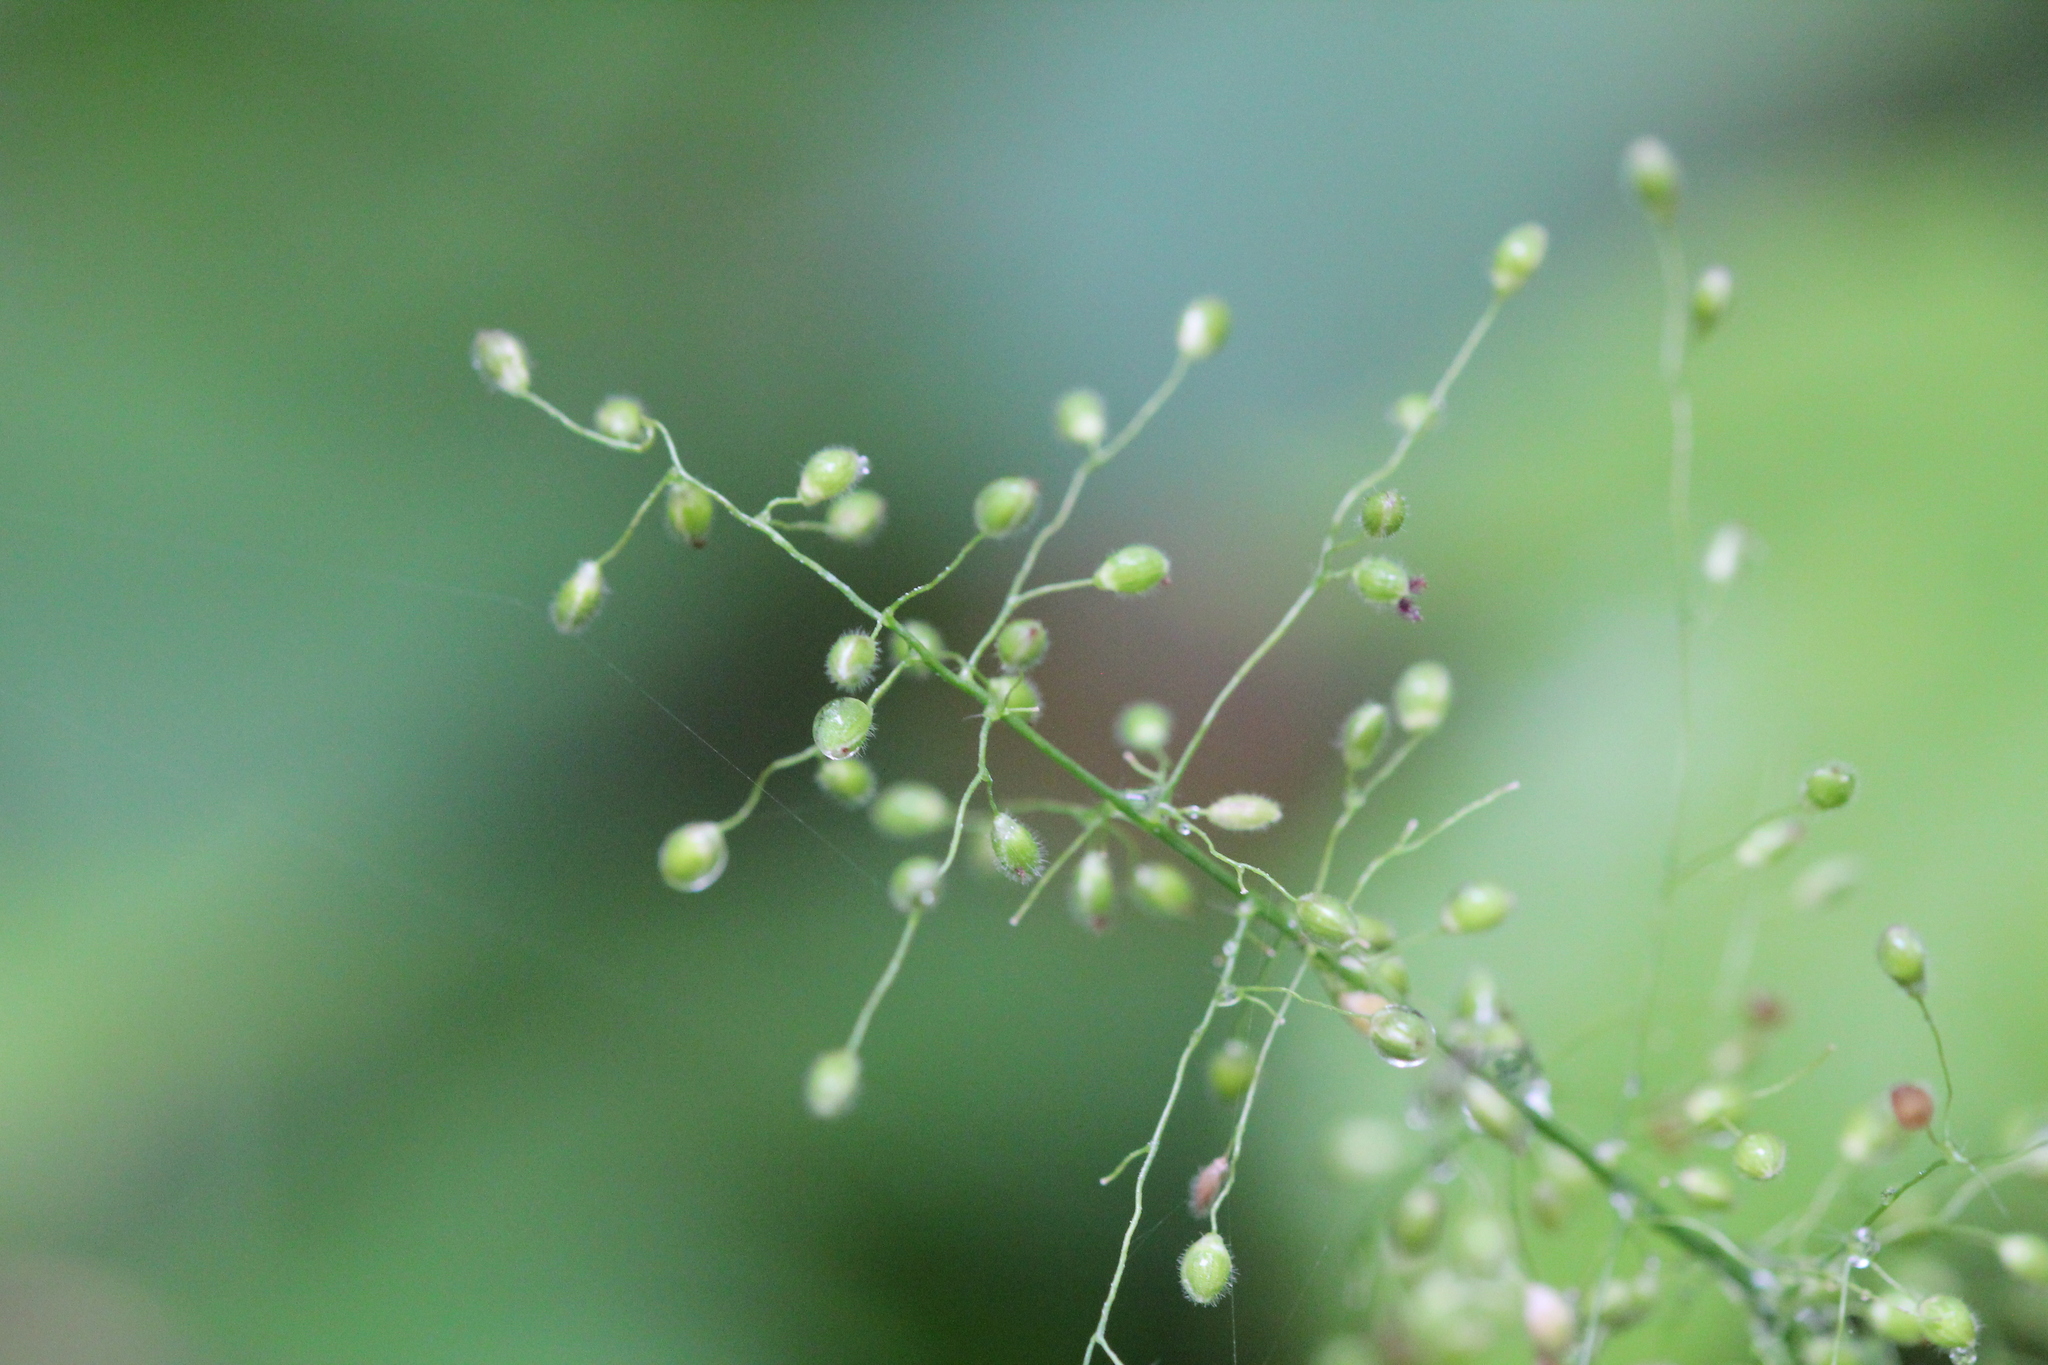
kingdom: Plantae
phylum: Tracheophyta
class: Liliopsida
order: Poales
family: Poaceae
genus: Dichanthelium
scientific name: Dichanthelium implicatum
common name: Slender-stemmed panicgrass
